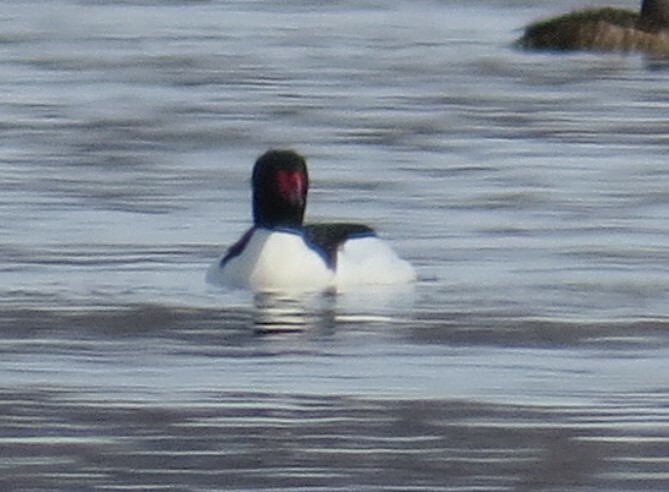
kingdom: Animalia
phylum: Chordata
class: Aves
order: Anseriformes
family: Anatidae
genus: Mergus
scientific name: Mergus merganser
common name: Common merganser
